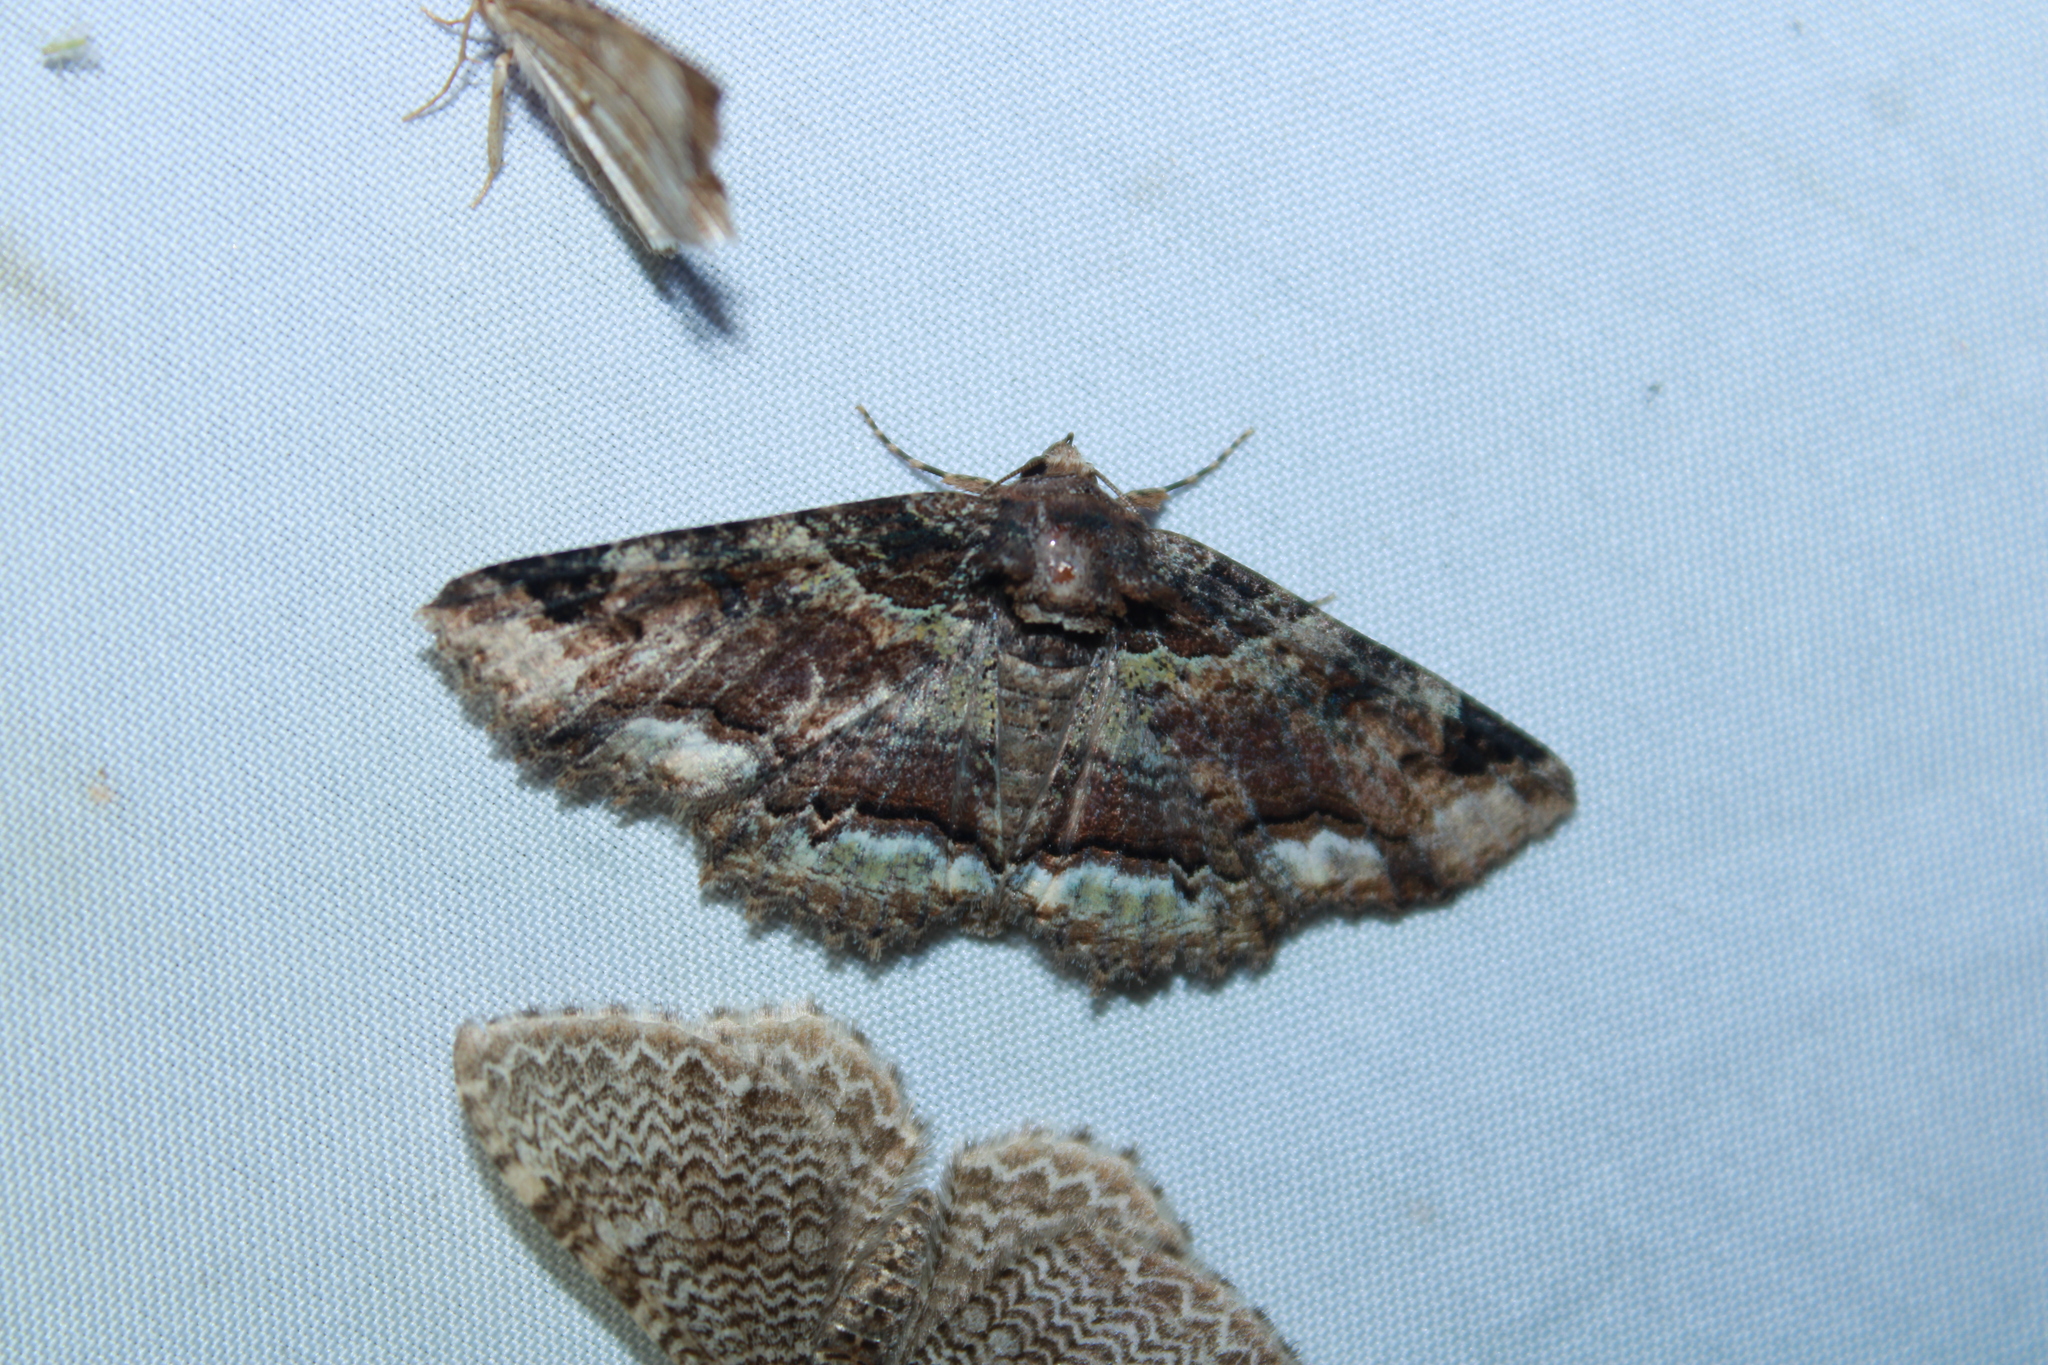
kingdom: Animalia
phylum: Arthropoda
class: Insecta
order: Lepidoptera
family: Erebidae
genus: Zale
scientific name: Zale minerea
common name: Colorful zale moth
